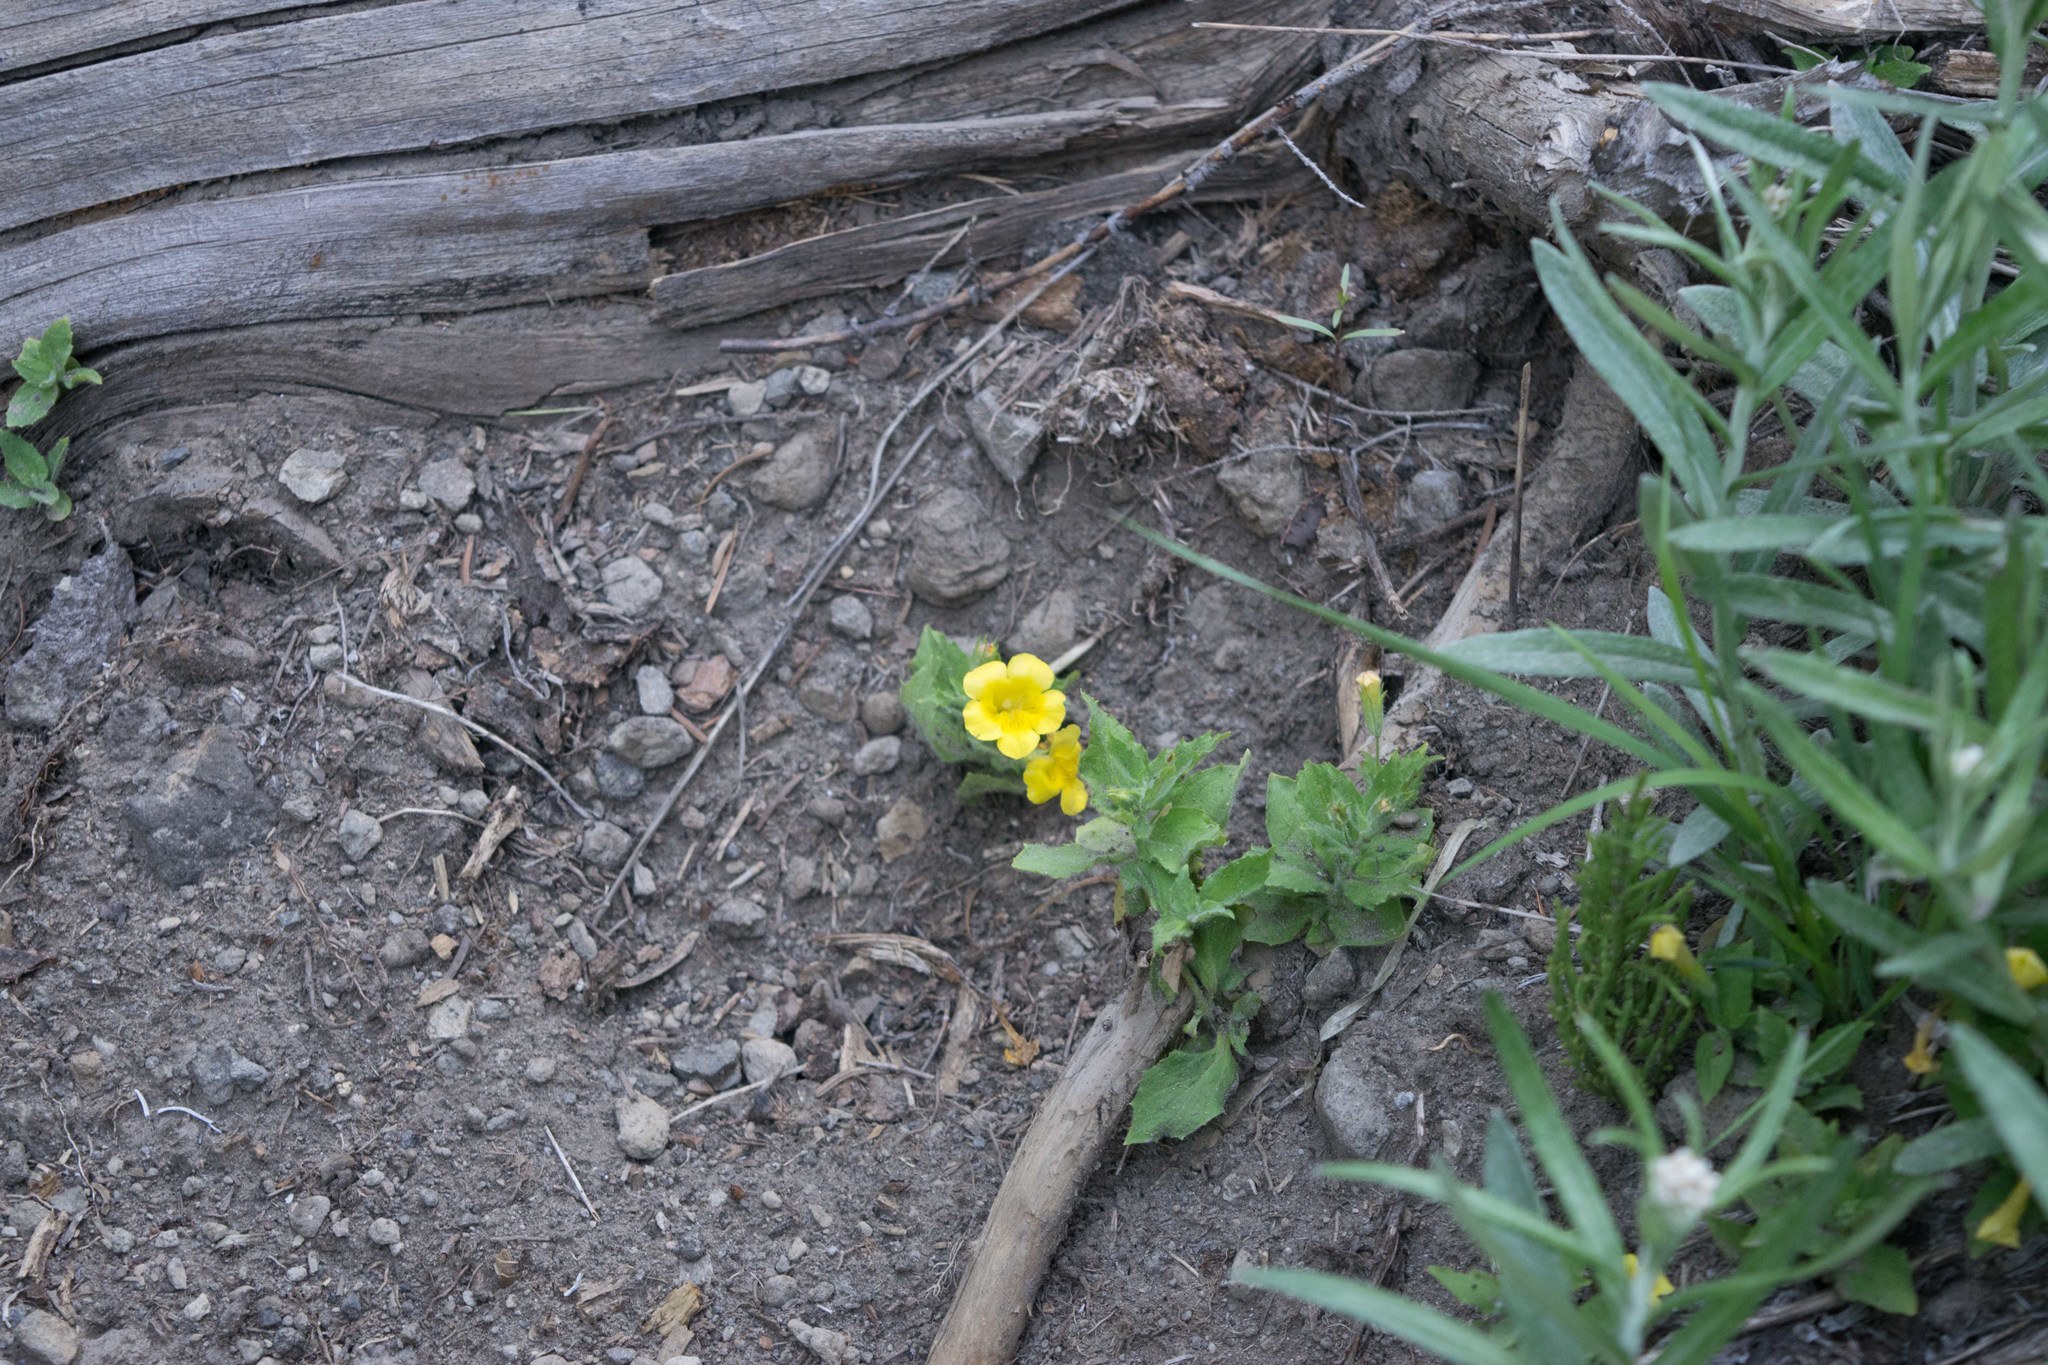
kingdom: Plantae
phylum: Tracheophyta
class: Magnoliopsida
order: Lamiales
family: Phrymaceae
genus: Erythranthe
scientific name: Erythranthe moschata
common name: Muskflower
